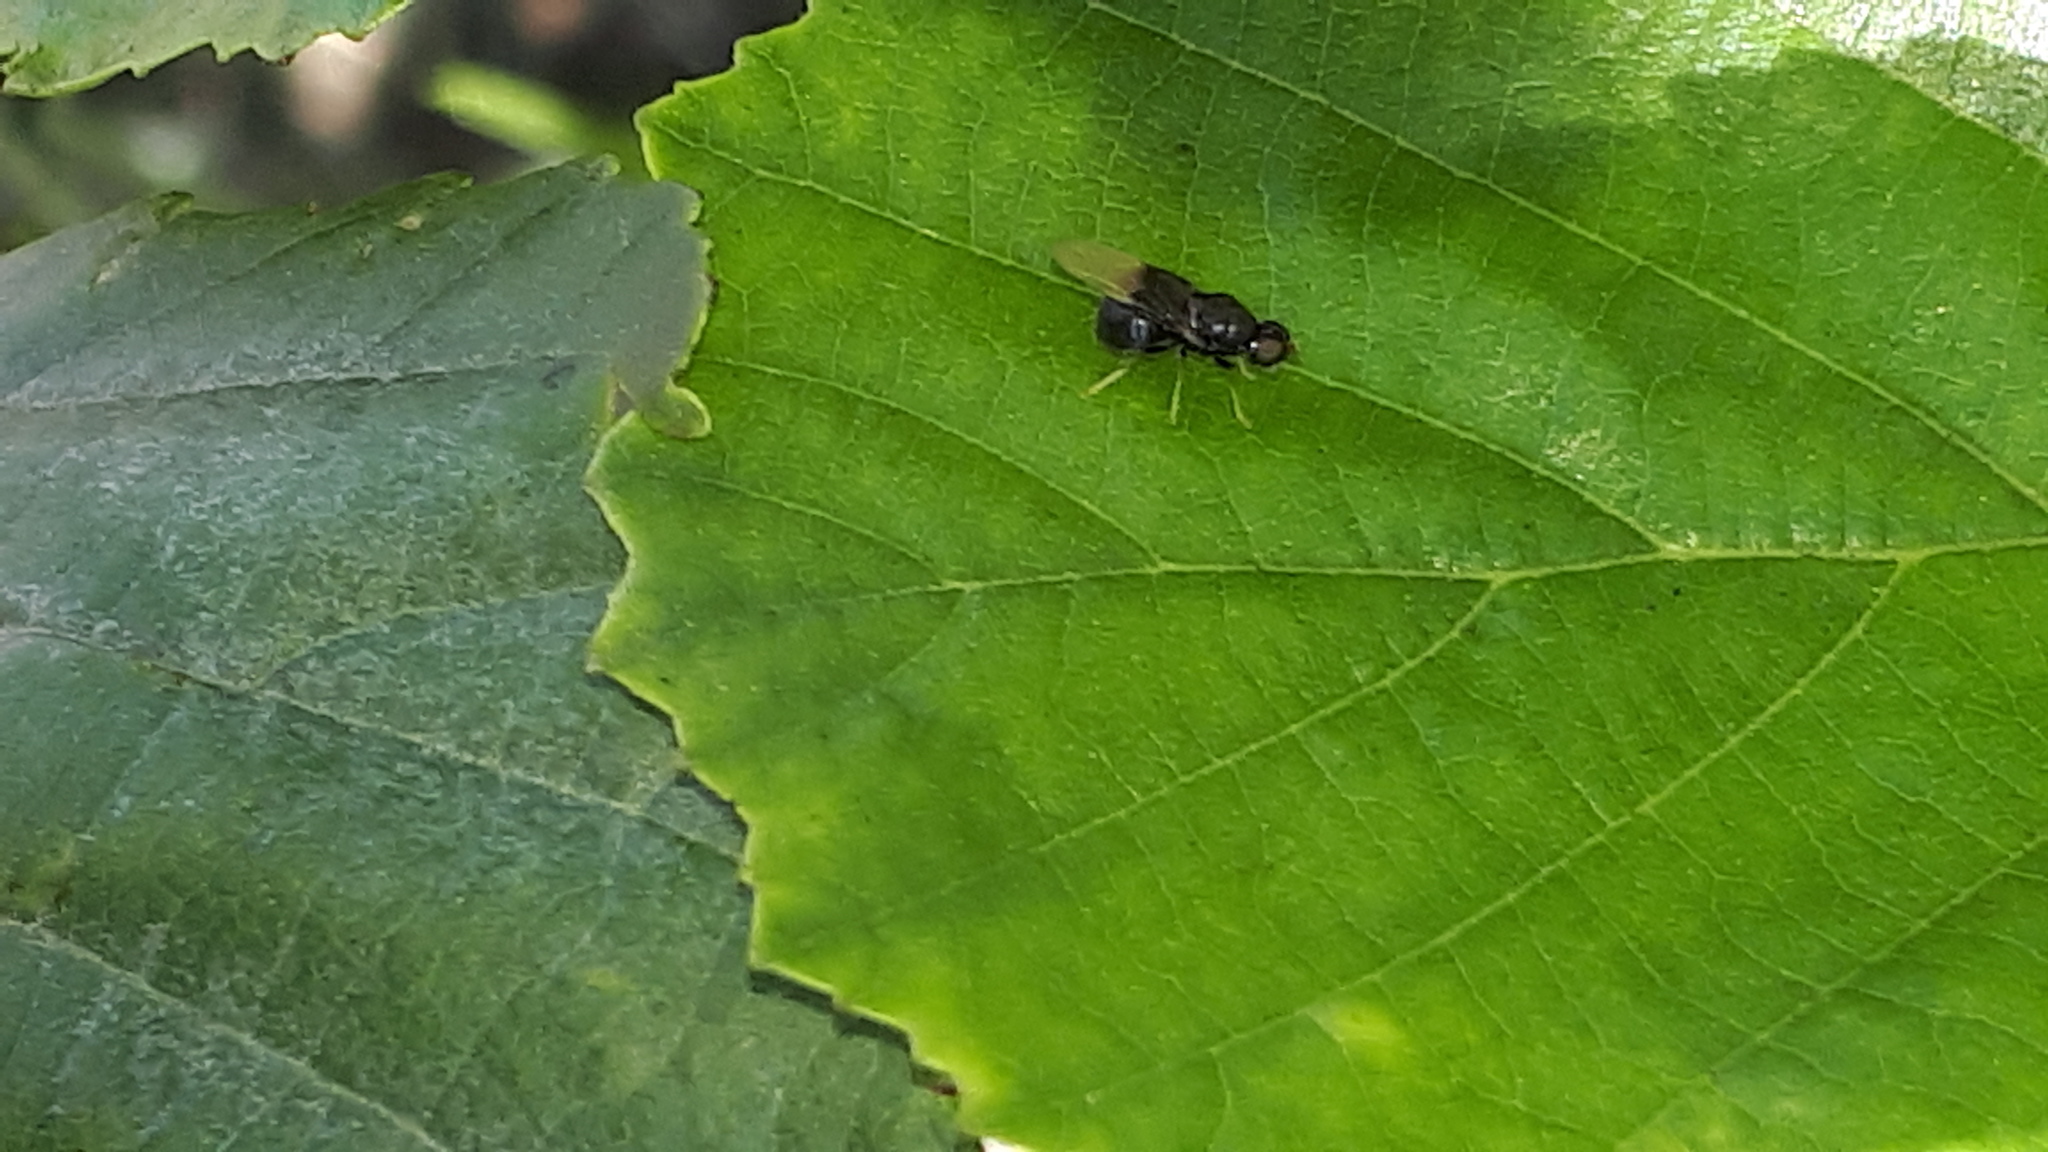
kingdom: Animalia
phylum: Arthropoda
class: Insecta
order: Diptera
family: Stratiomyidae
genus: Pachygaster
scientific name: Pachygaster atra
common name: Dark-winged black
